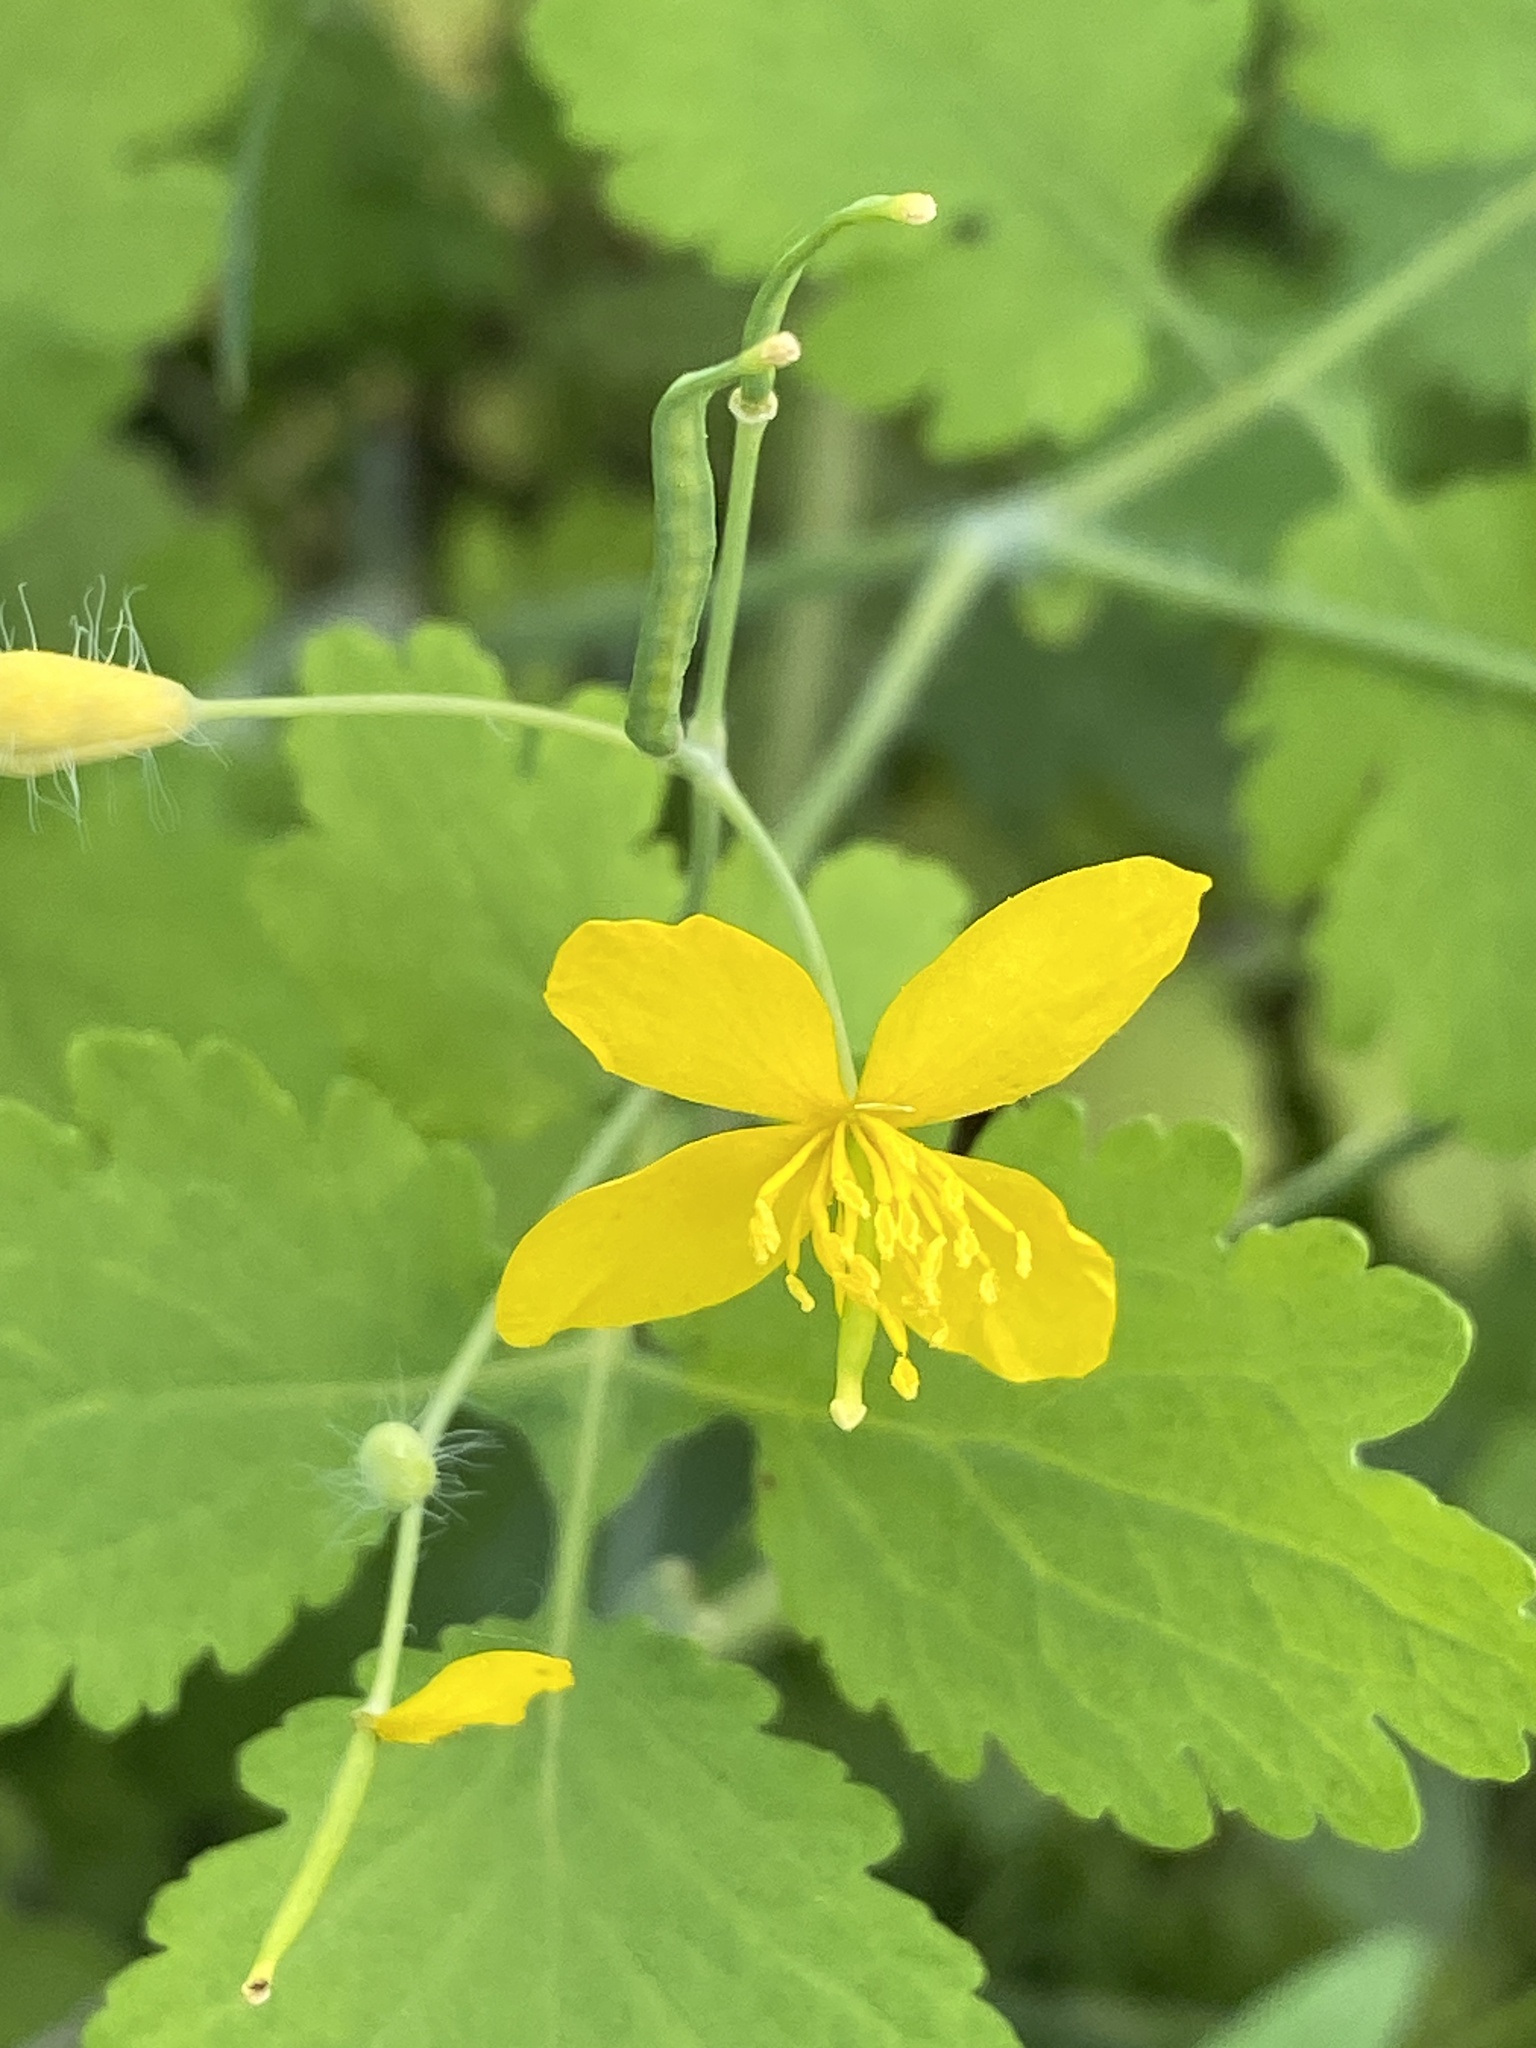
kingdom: Plantae
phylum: Tracheophyta
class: Magnoliopsida
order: Ranunculales
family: Papaveraceae
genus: Chelidonium
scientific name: Chelidonium majus
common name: Greater celandine
